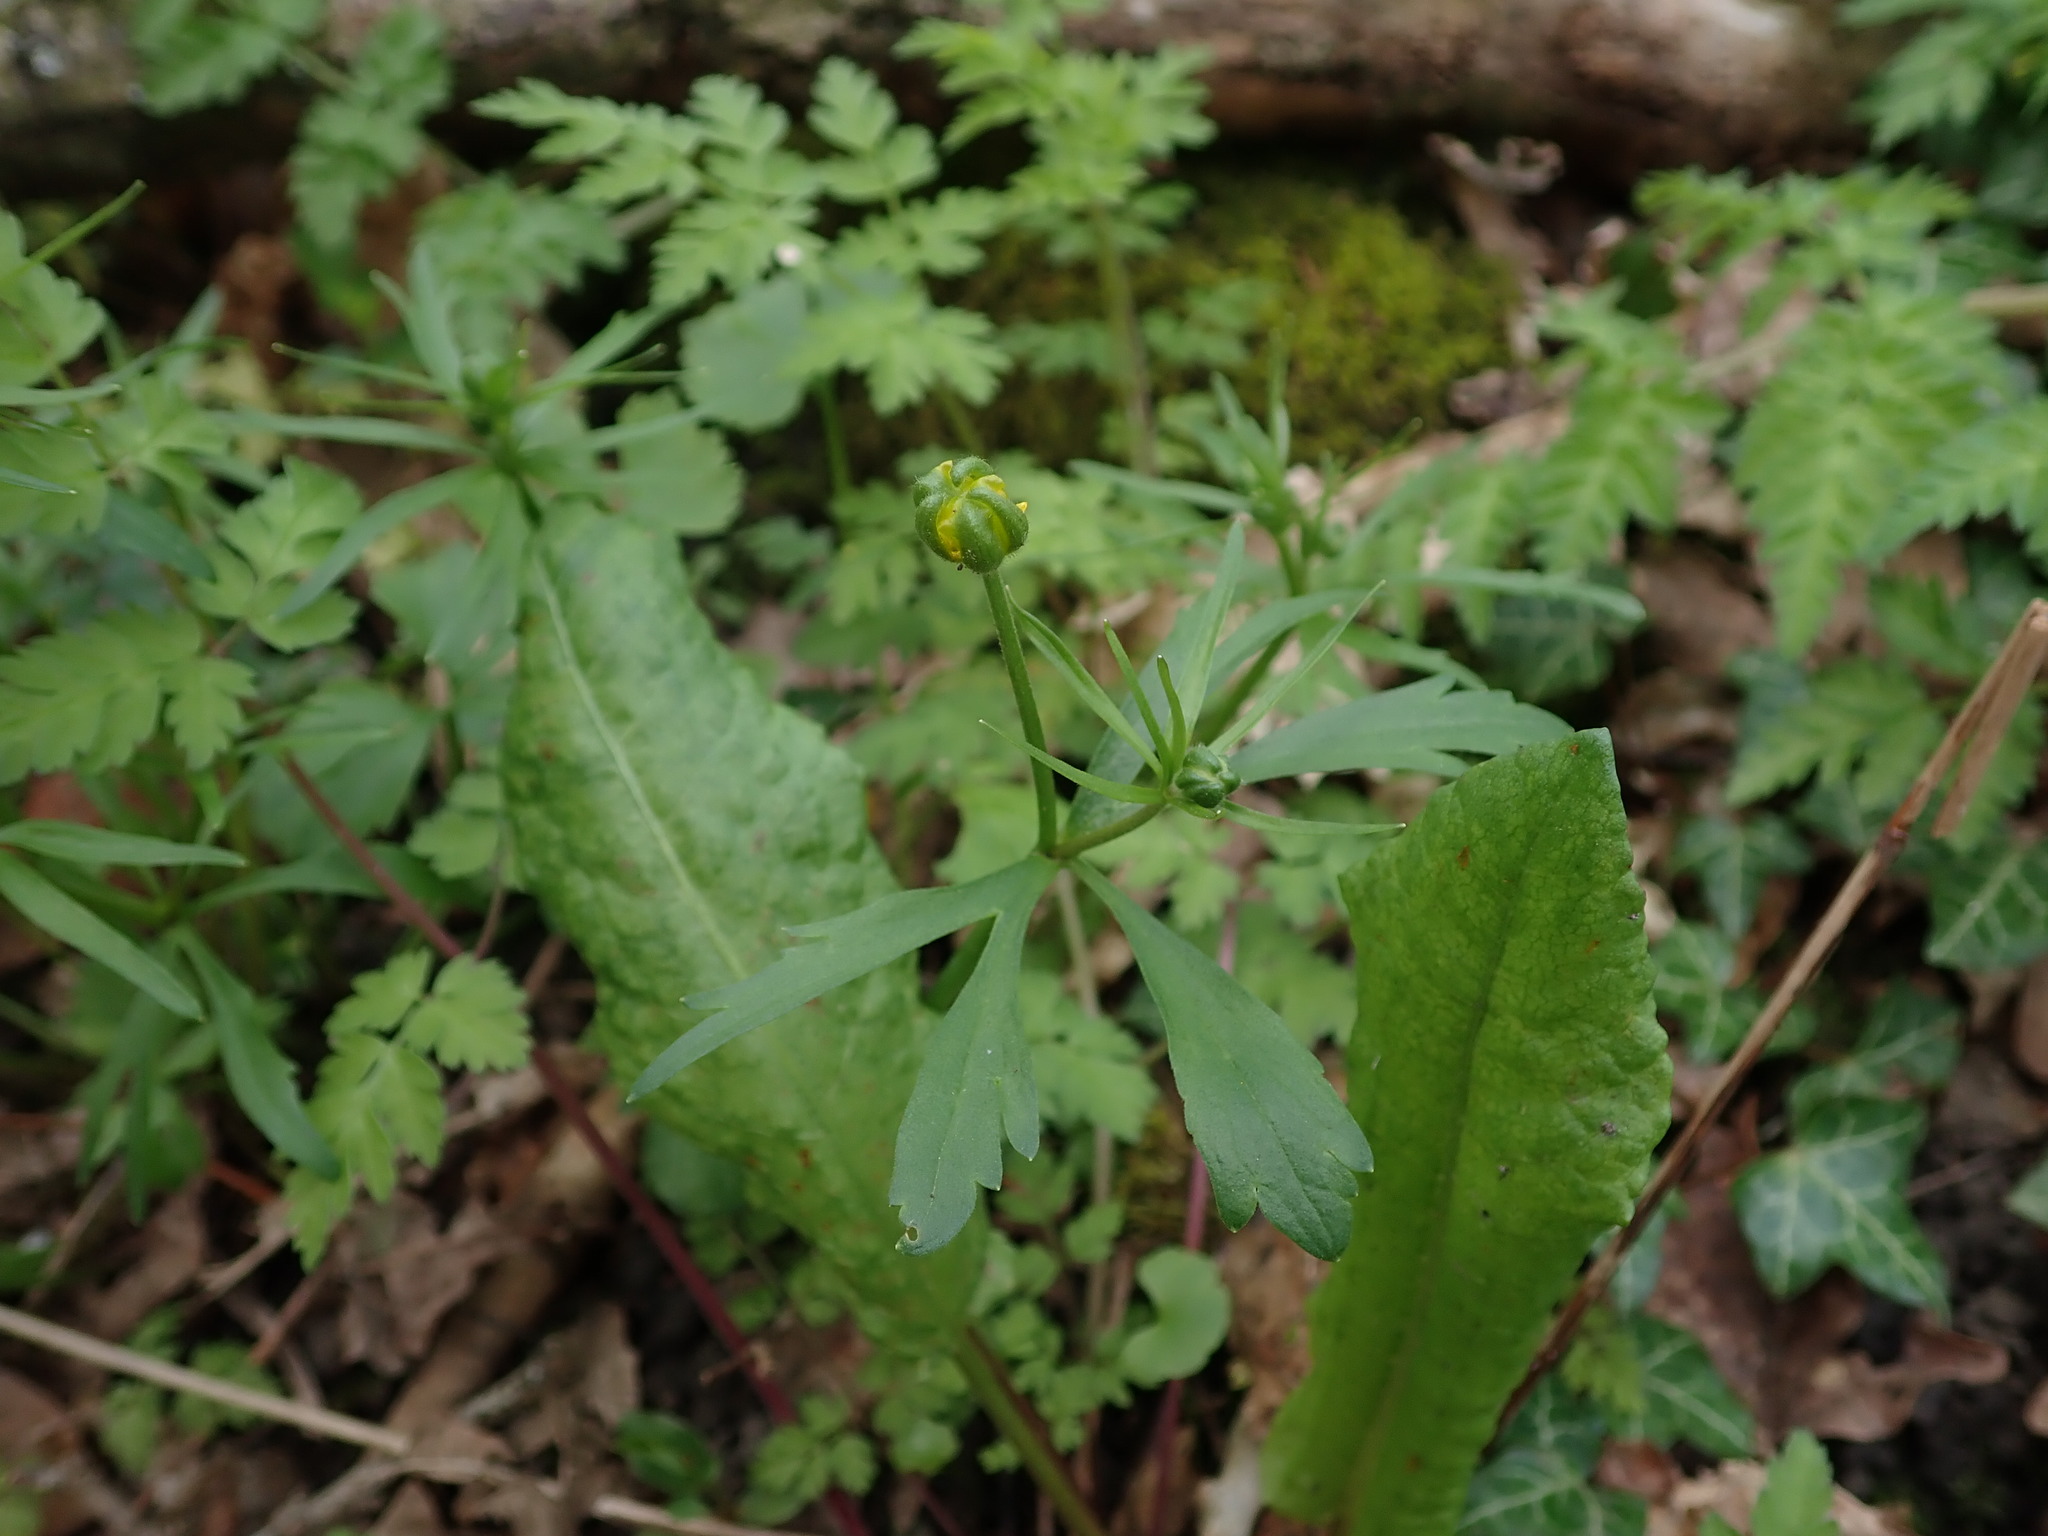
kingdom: Plantae
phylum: Tracheophyta
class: Magnoliopsida
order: Ranunculales
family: Ranunculaceae
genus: Ranunculus
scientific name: Ranunculus auricomus
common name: Goldilocks buttercup
